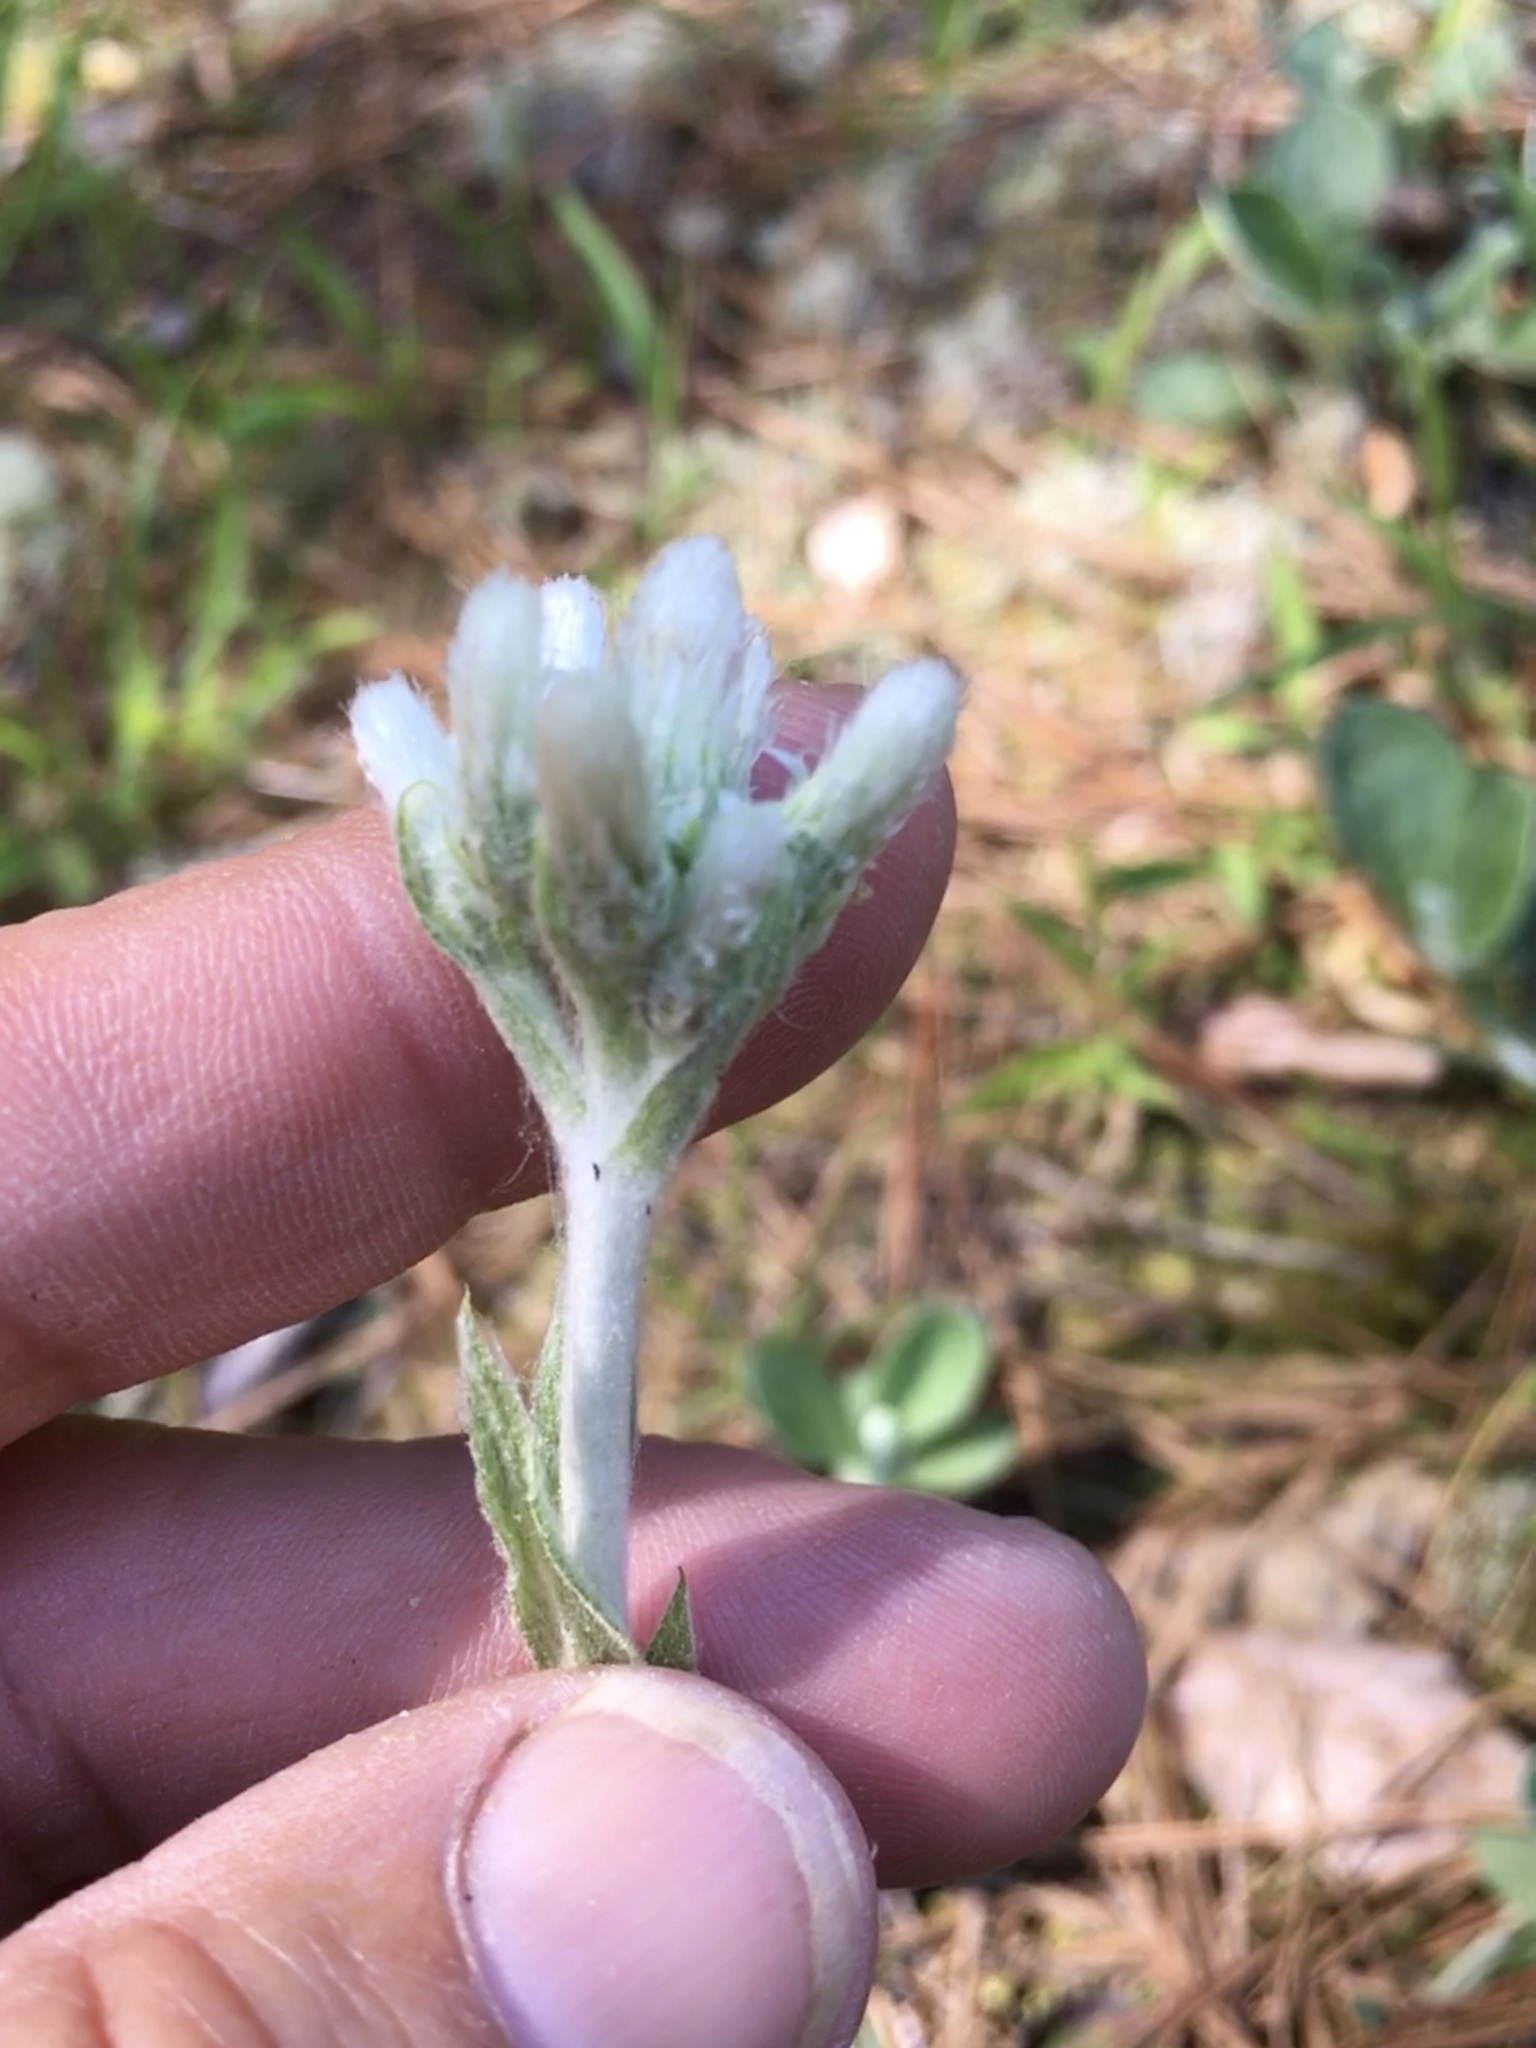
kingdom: Plantae
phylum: Tracheophyta
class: Magnoliopsida
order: Asterales
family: Asteraceae
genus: Antennaria
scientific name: Antennaria plantaginifolia
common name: Plantain-leaved pussytoes
